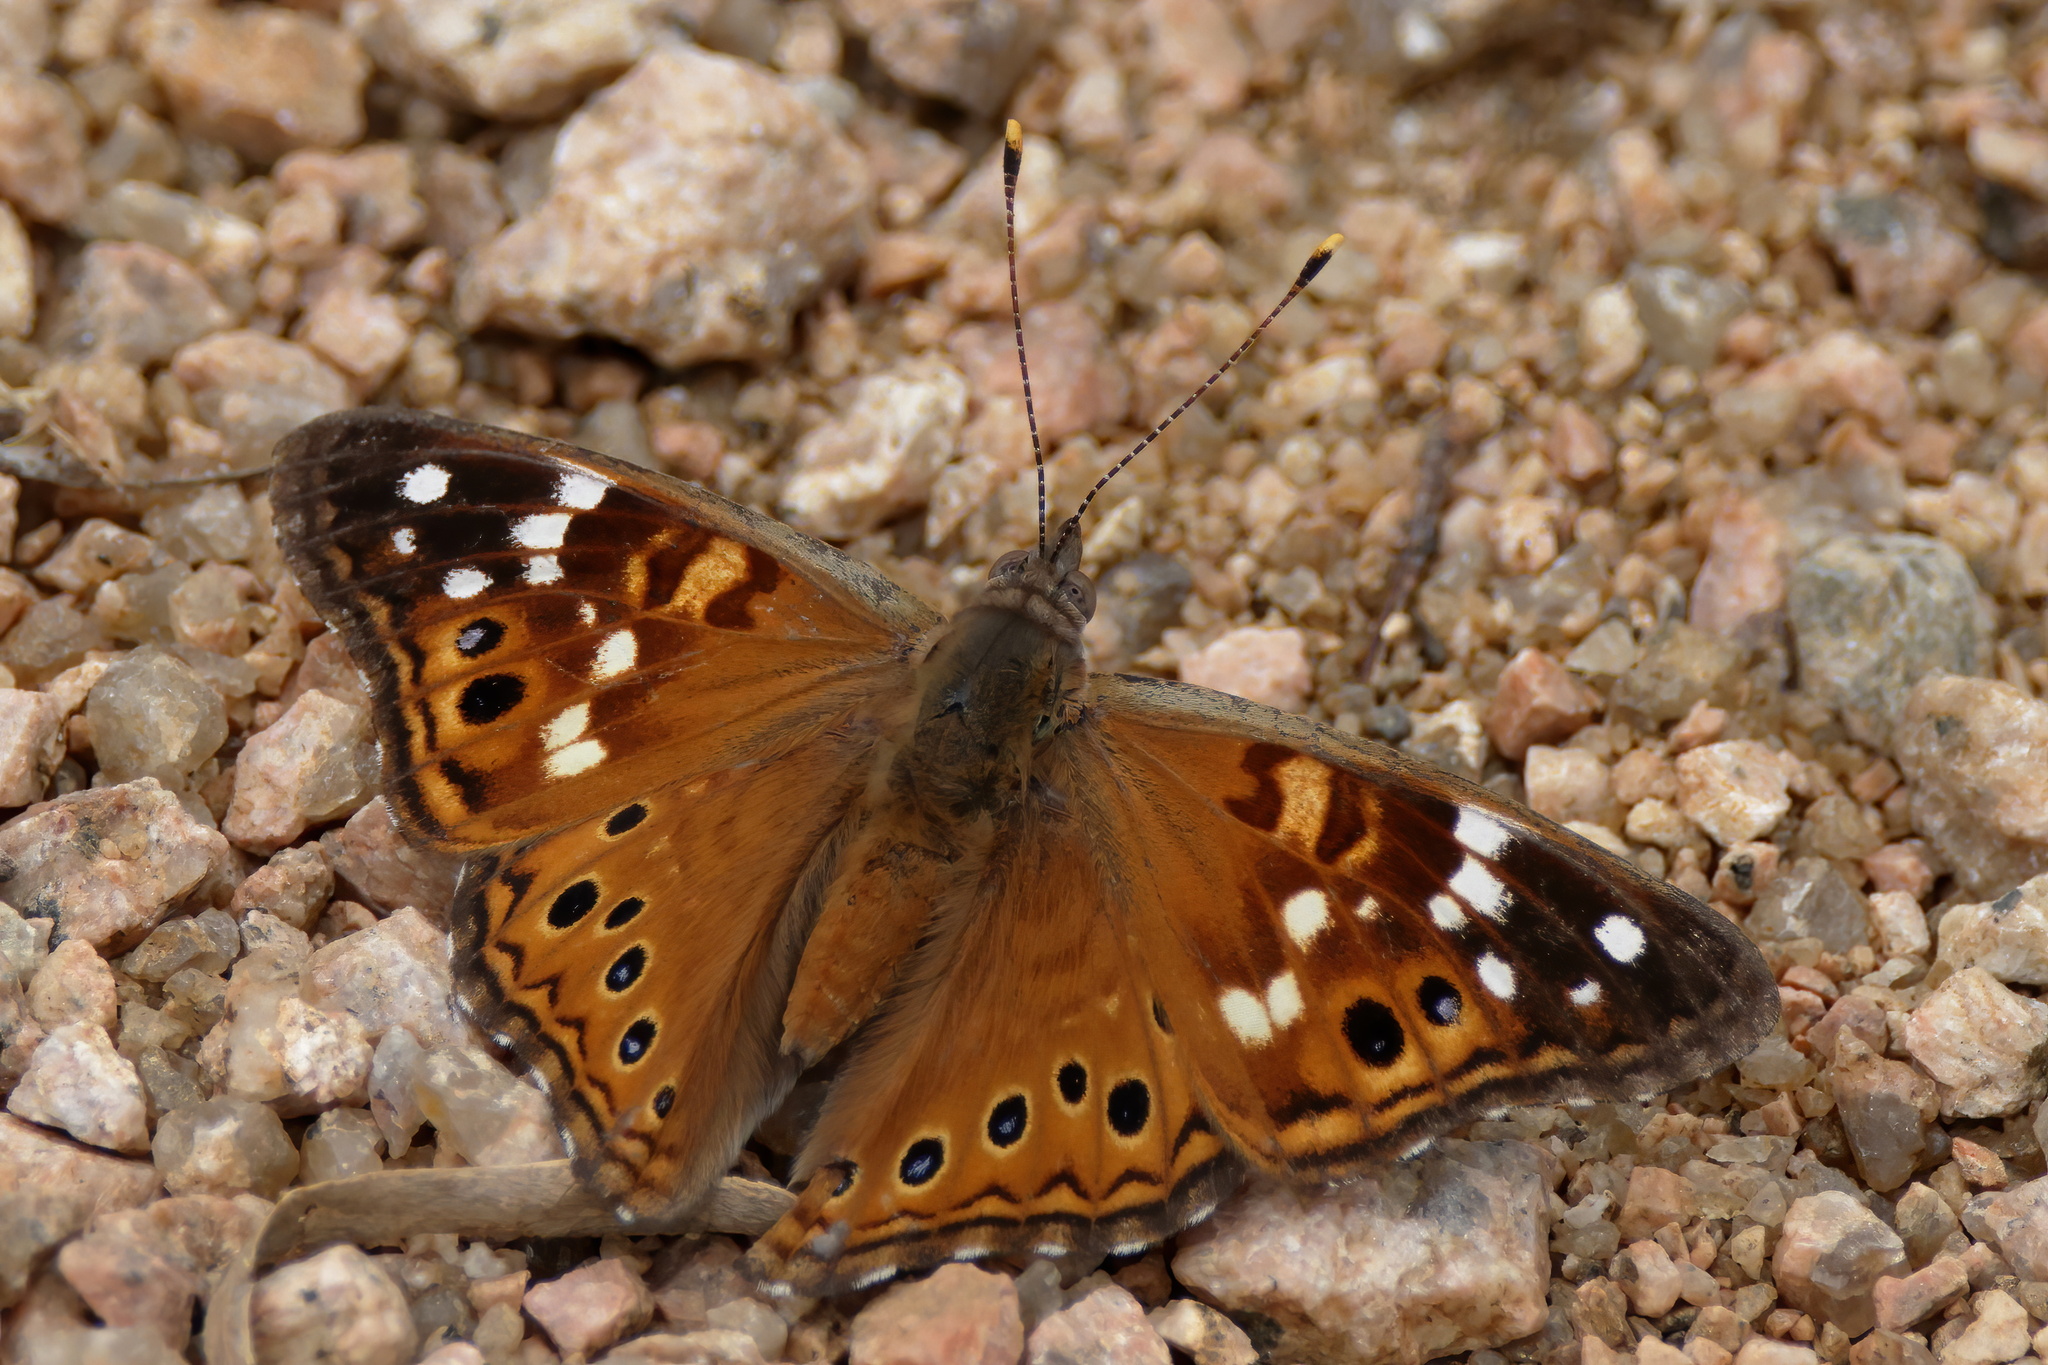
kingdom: Animalia
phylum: Arthropoda
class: Insecta
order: Lepidoptera
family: Nymphalidae
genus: Asterocampa
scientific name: Asterocampa leilia
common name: Empress leilia
